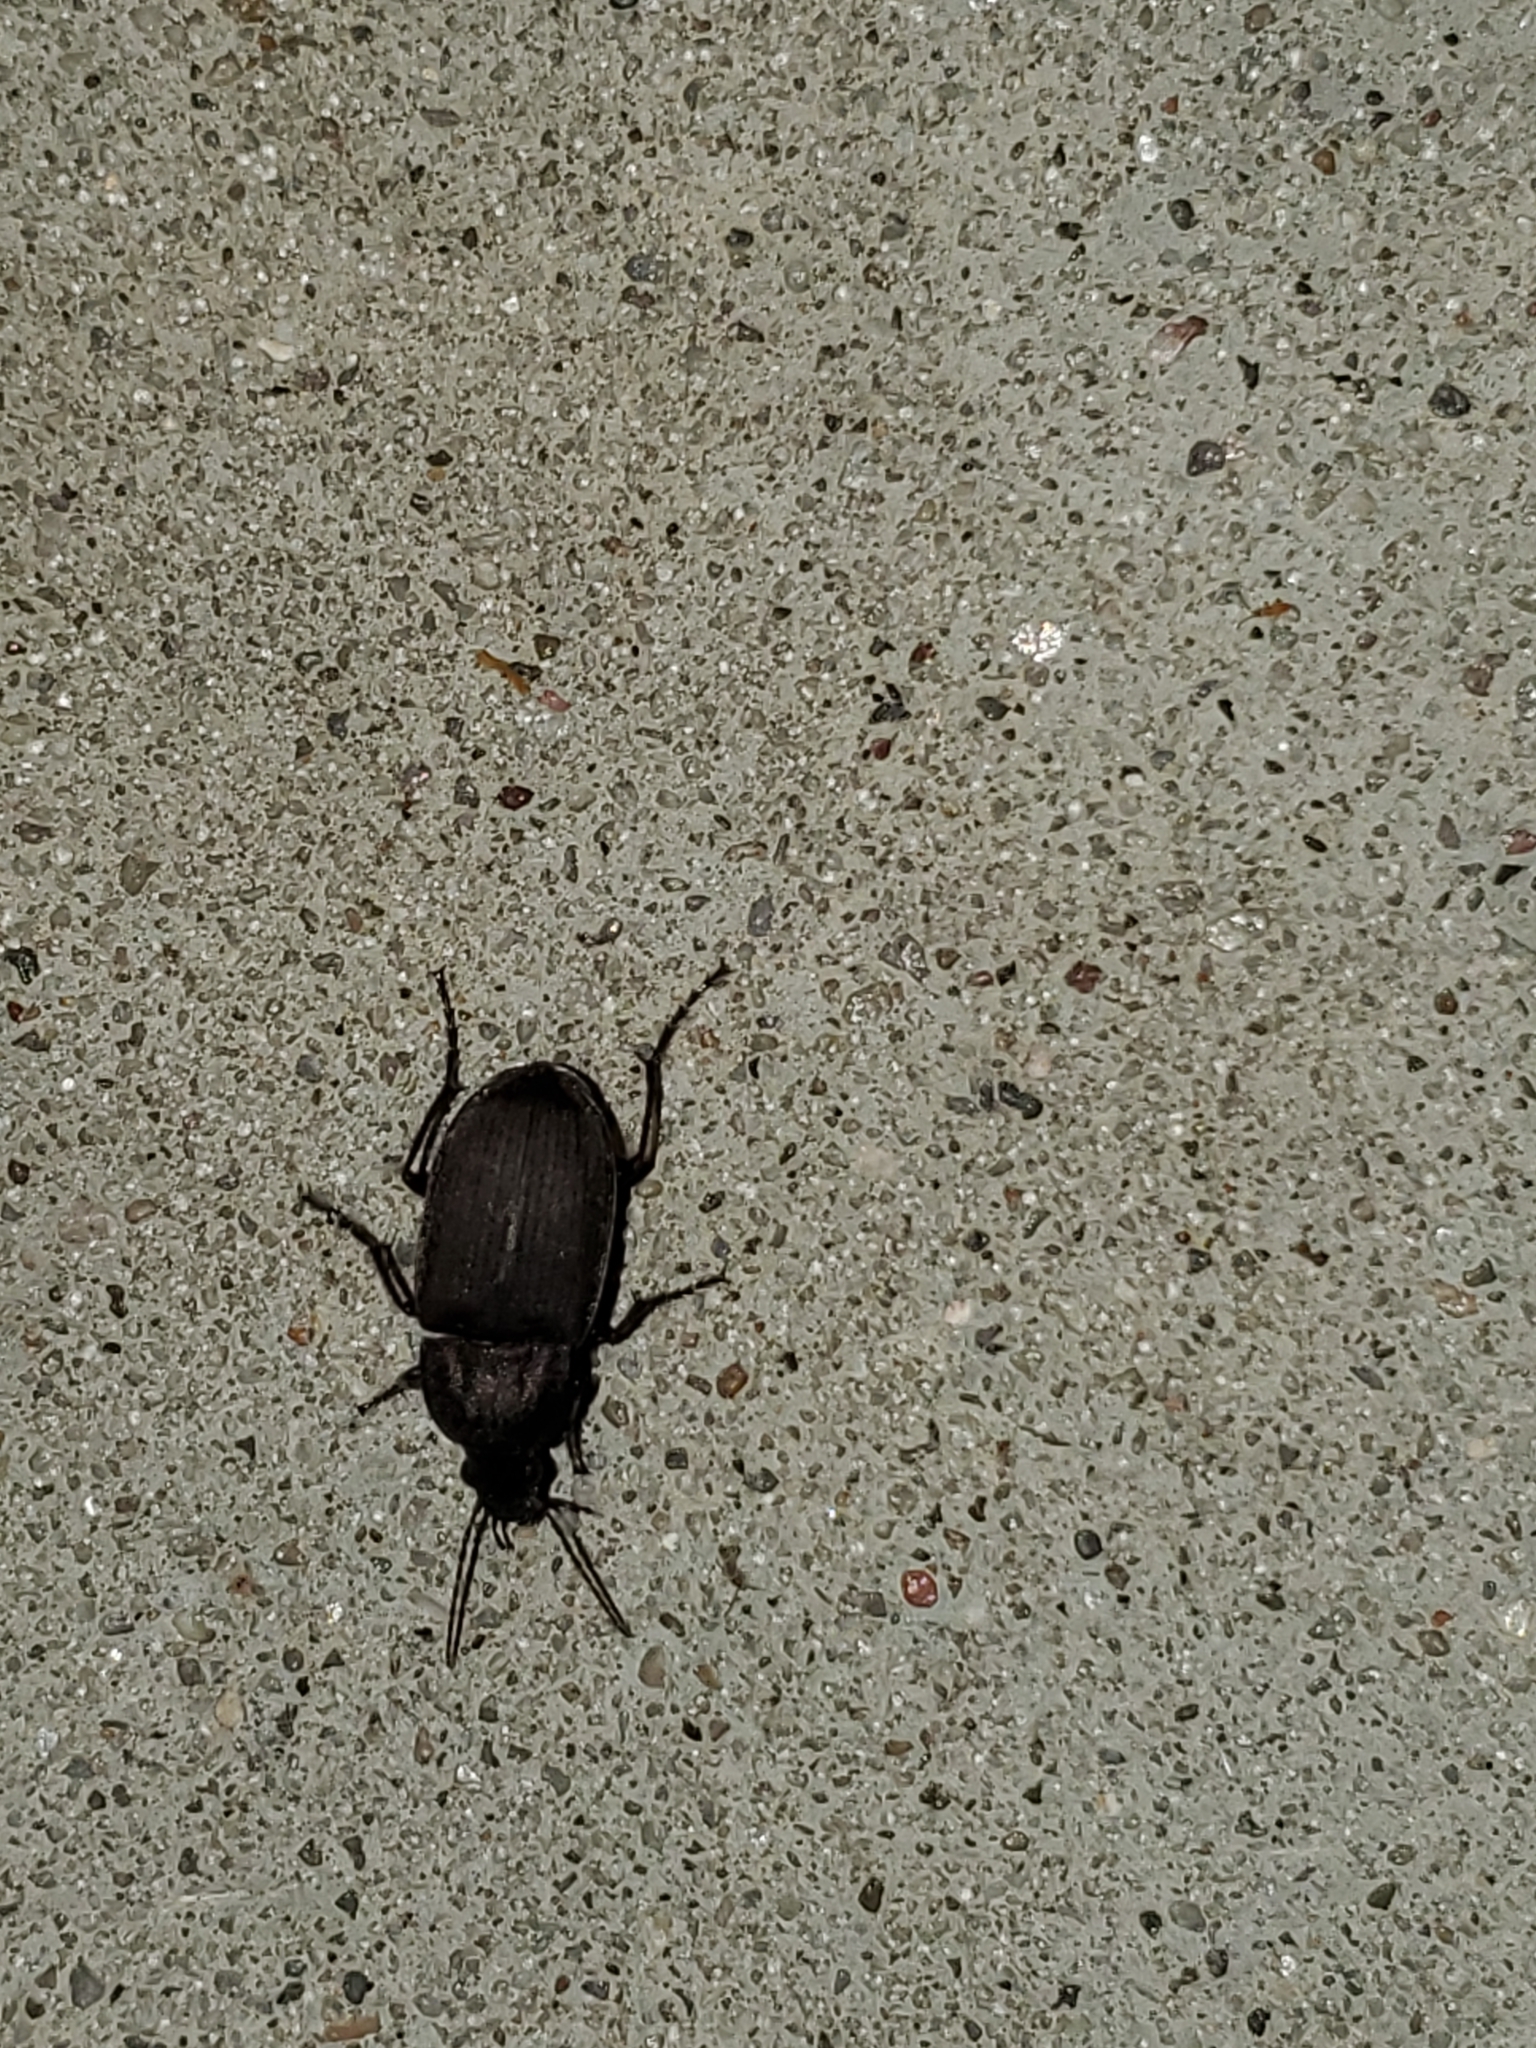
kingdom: Animalia
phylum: Arthropoda
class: Insecta
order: Coleoptera
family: Carabidae
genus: Chlaenius
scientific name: Chlaenius tomentosus
